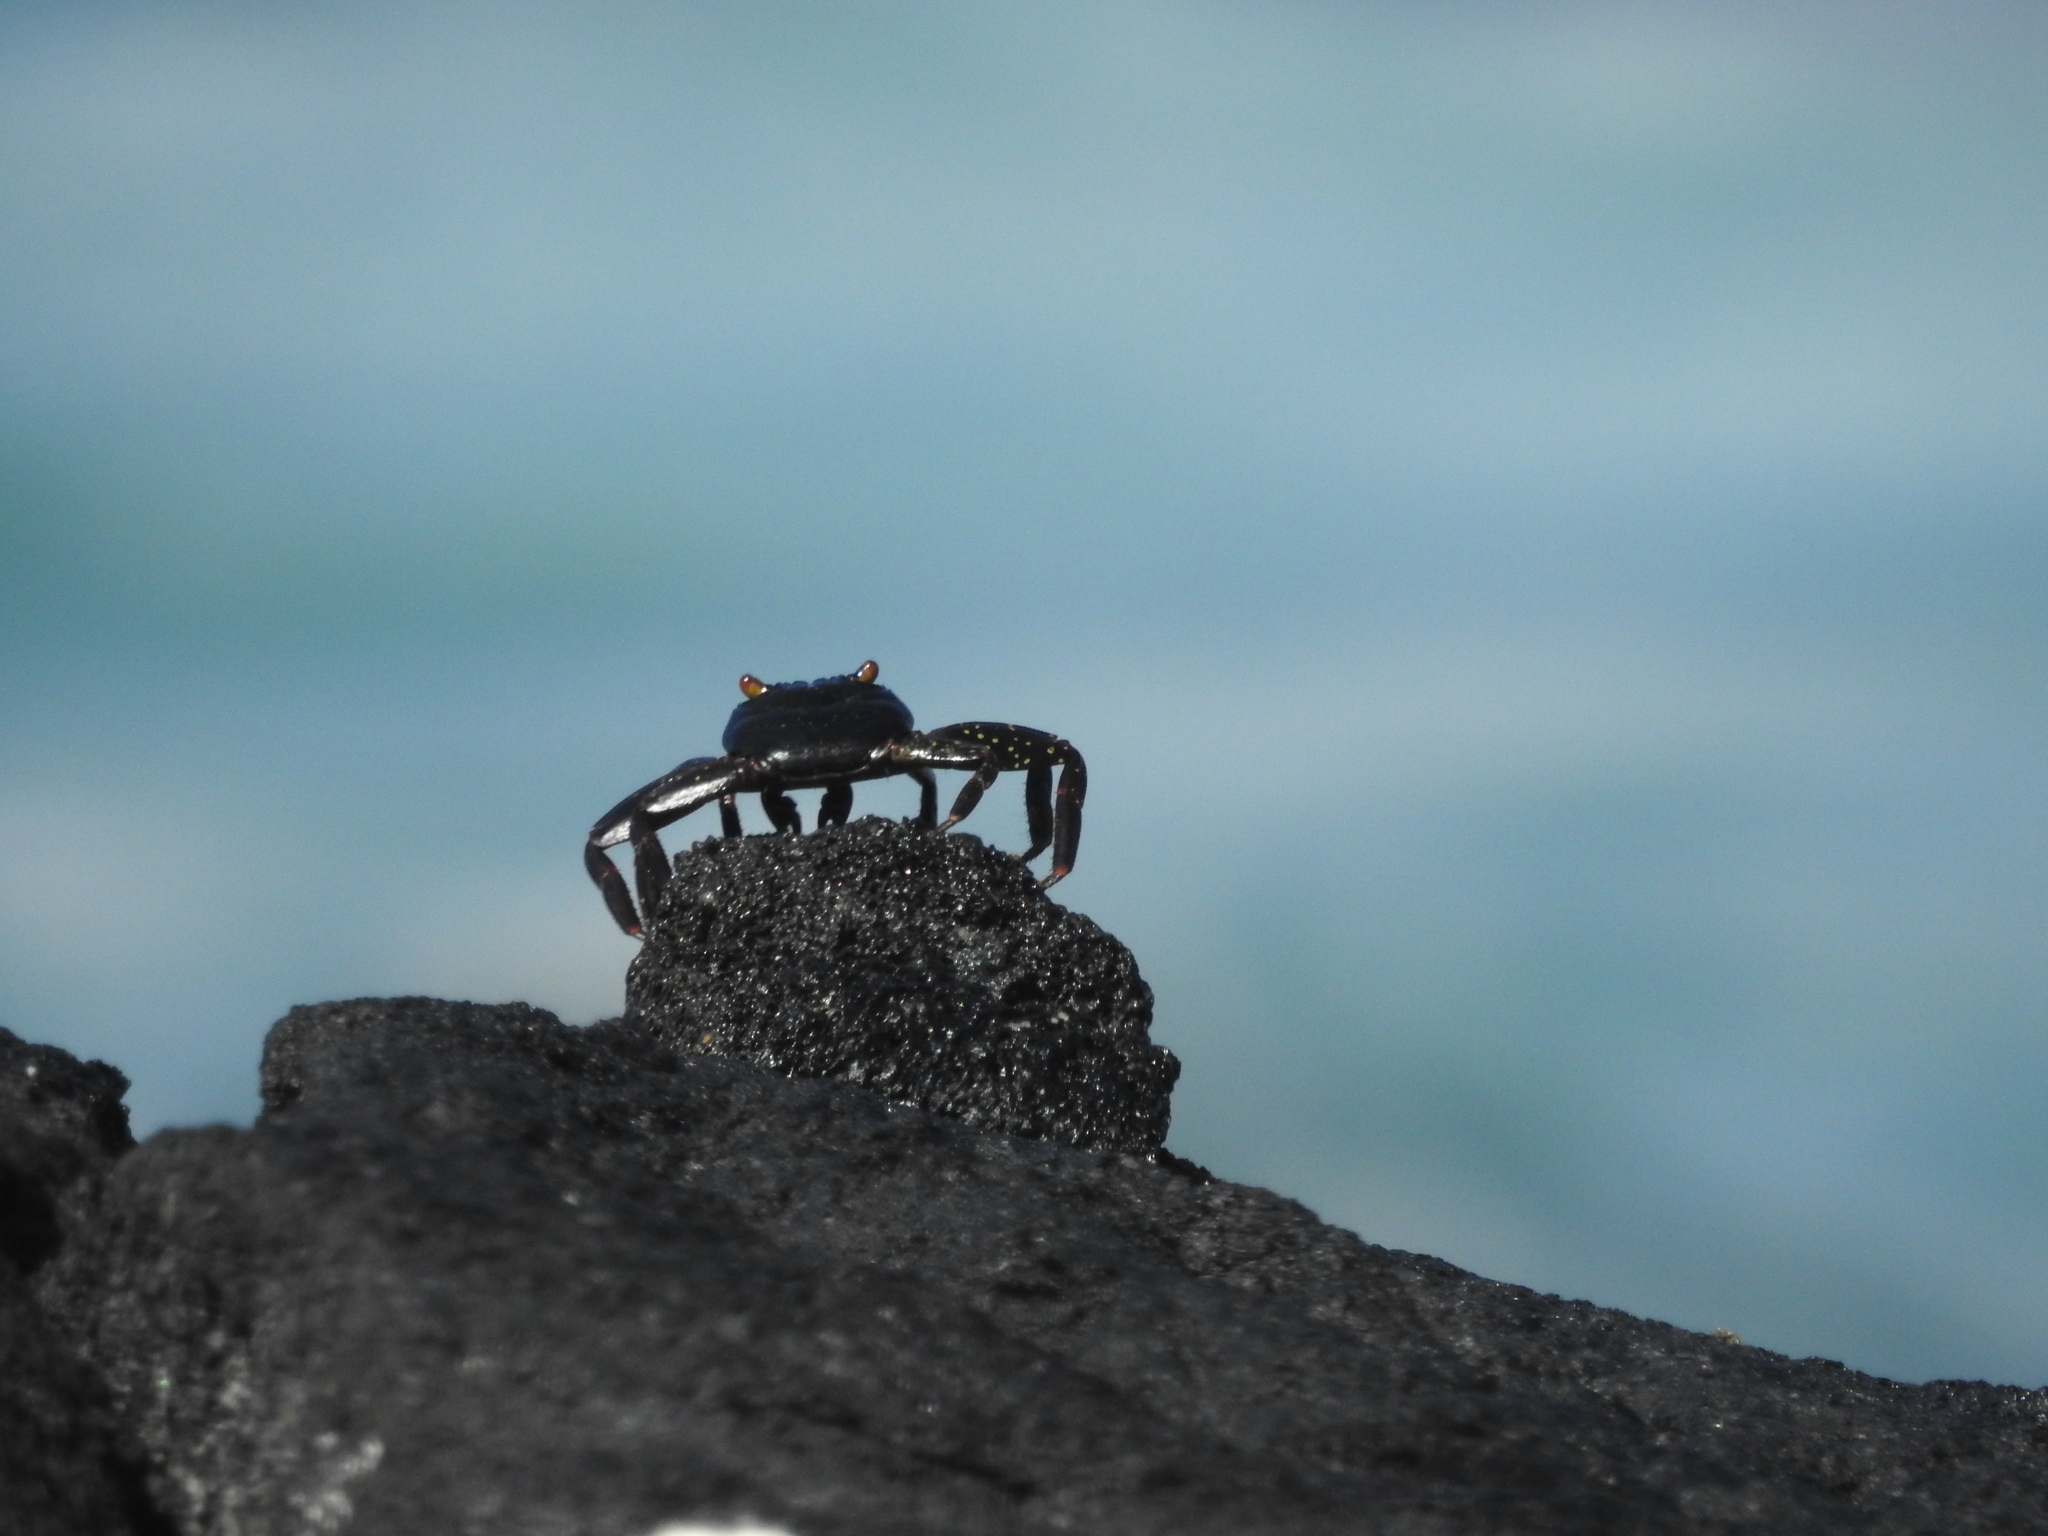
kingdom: Animalia
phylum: Arthropoda
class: Malacostraca
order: Decapoda
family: Grapsidae
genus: Grapsus
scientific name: Grapsus grapsus
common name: Sally lightfoot
